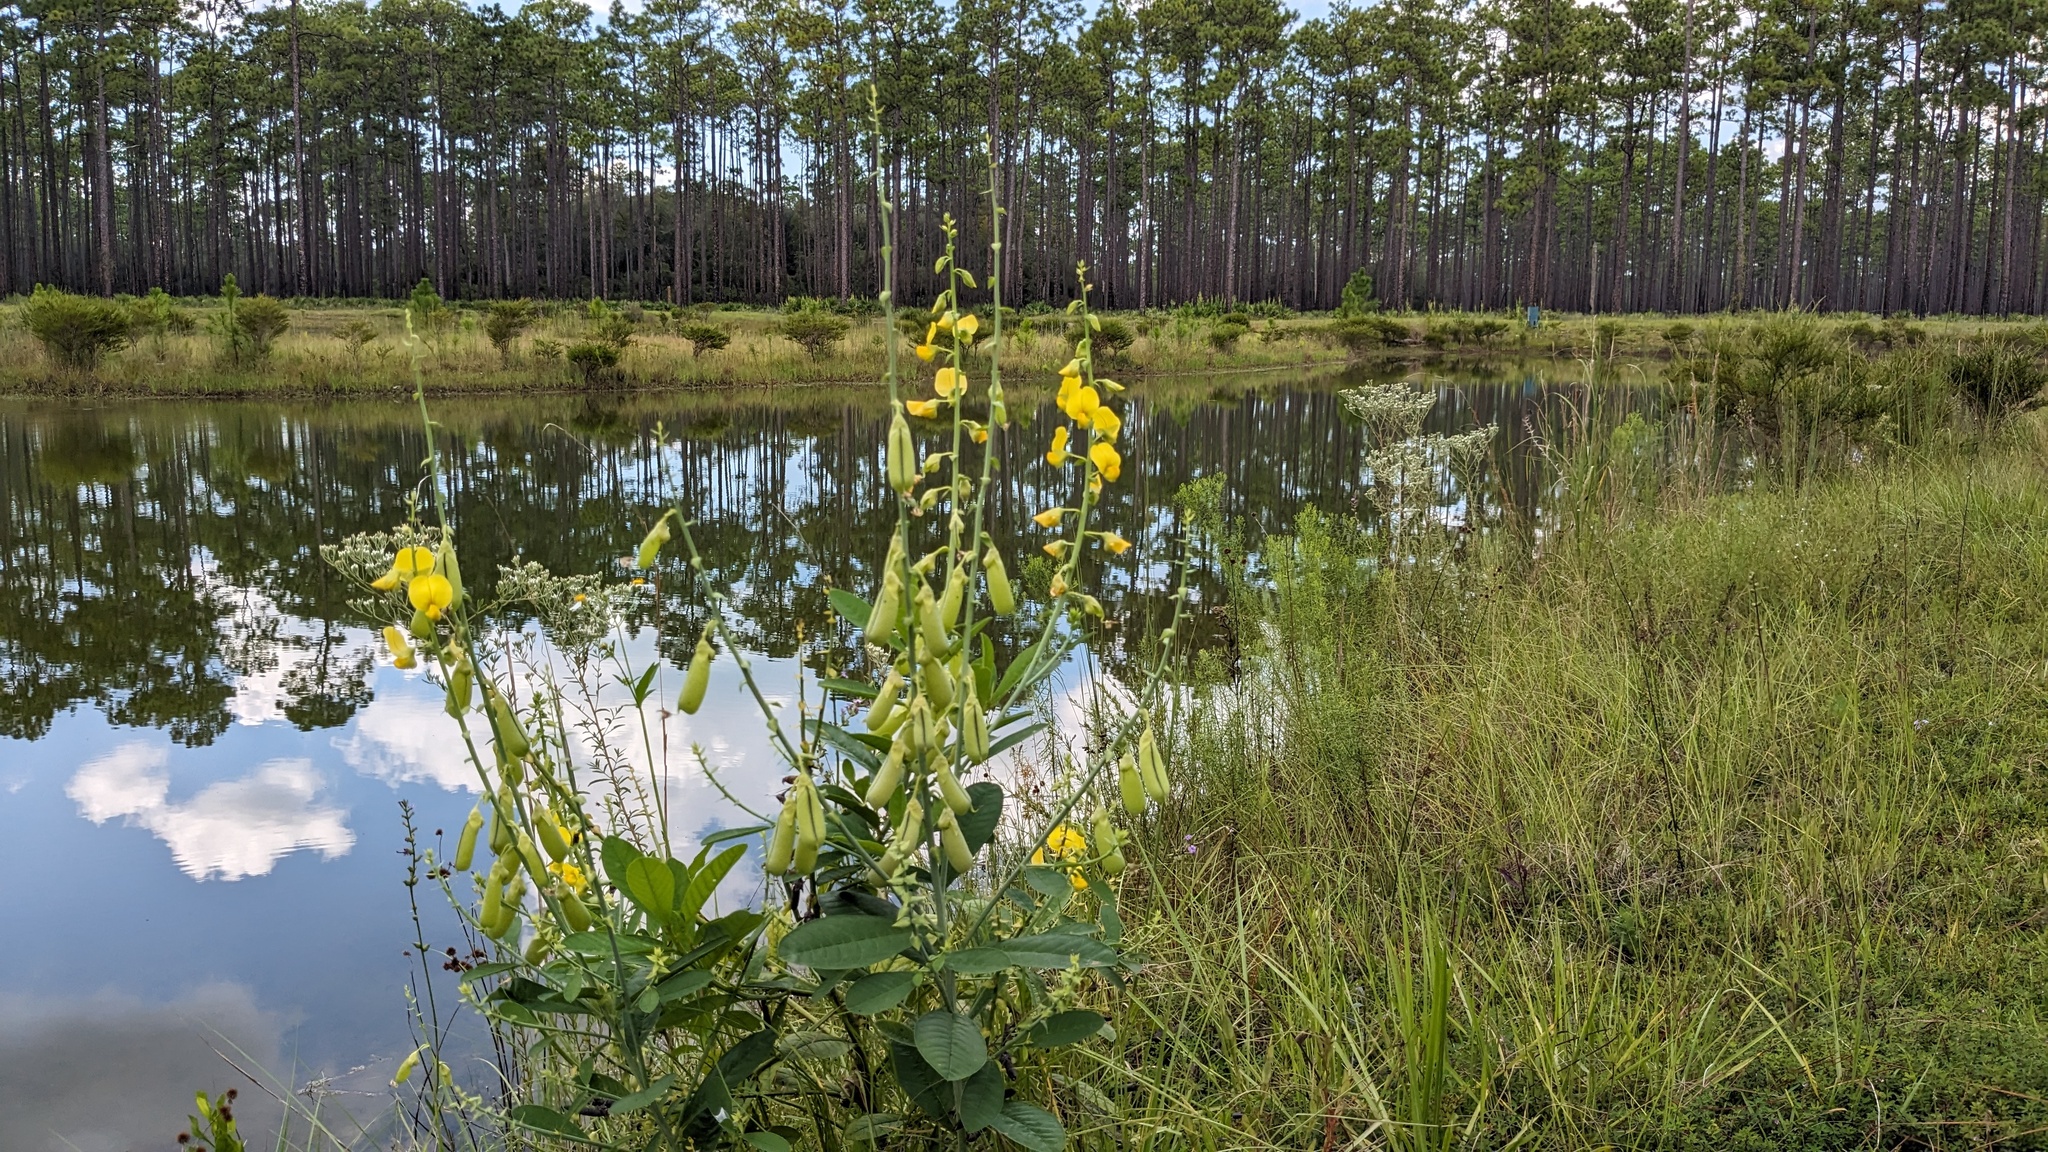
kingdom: Plantae
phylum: Tracheophyta
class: Magnoliopsida
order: Fabales
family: Fabaceae
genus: Crotalaria
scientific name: Crotalaria spectabilis
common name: Showy rattlebox
